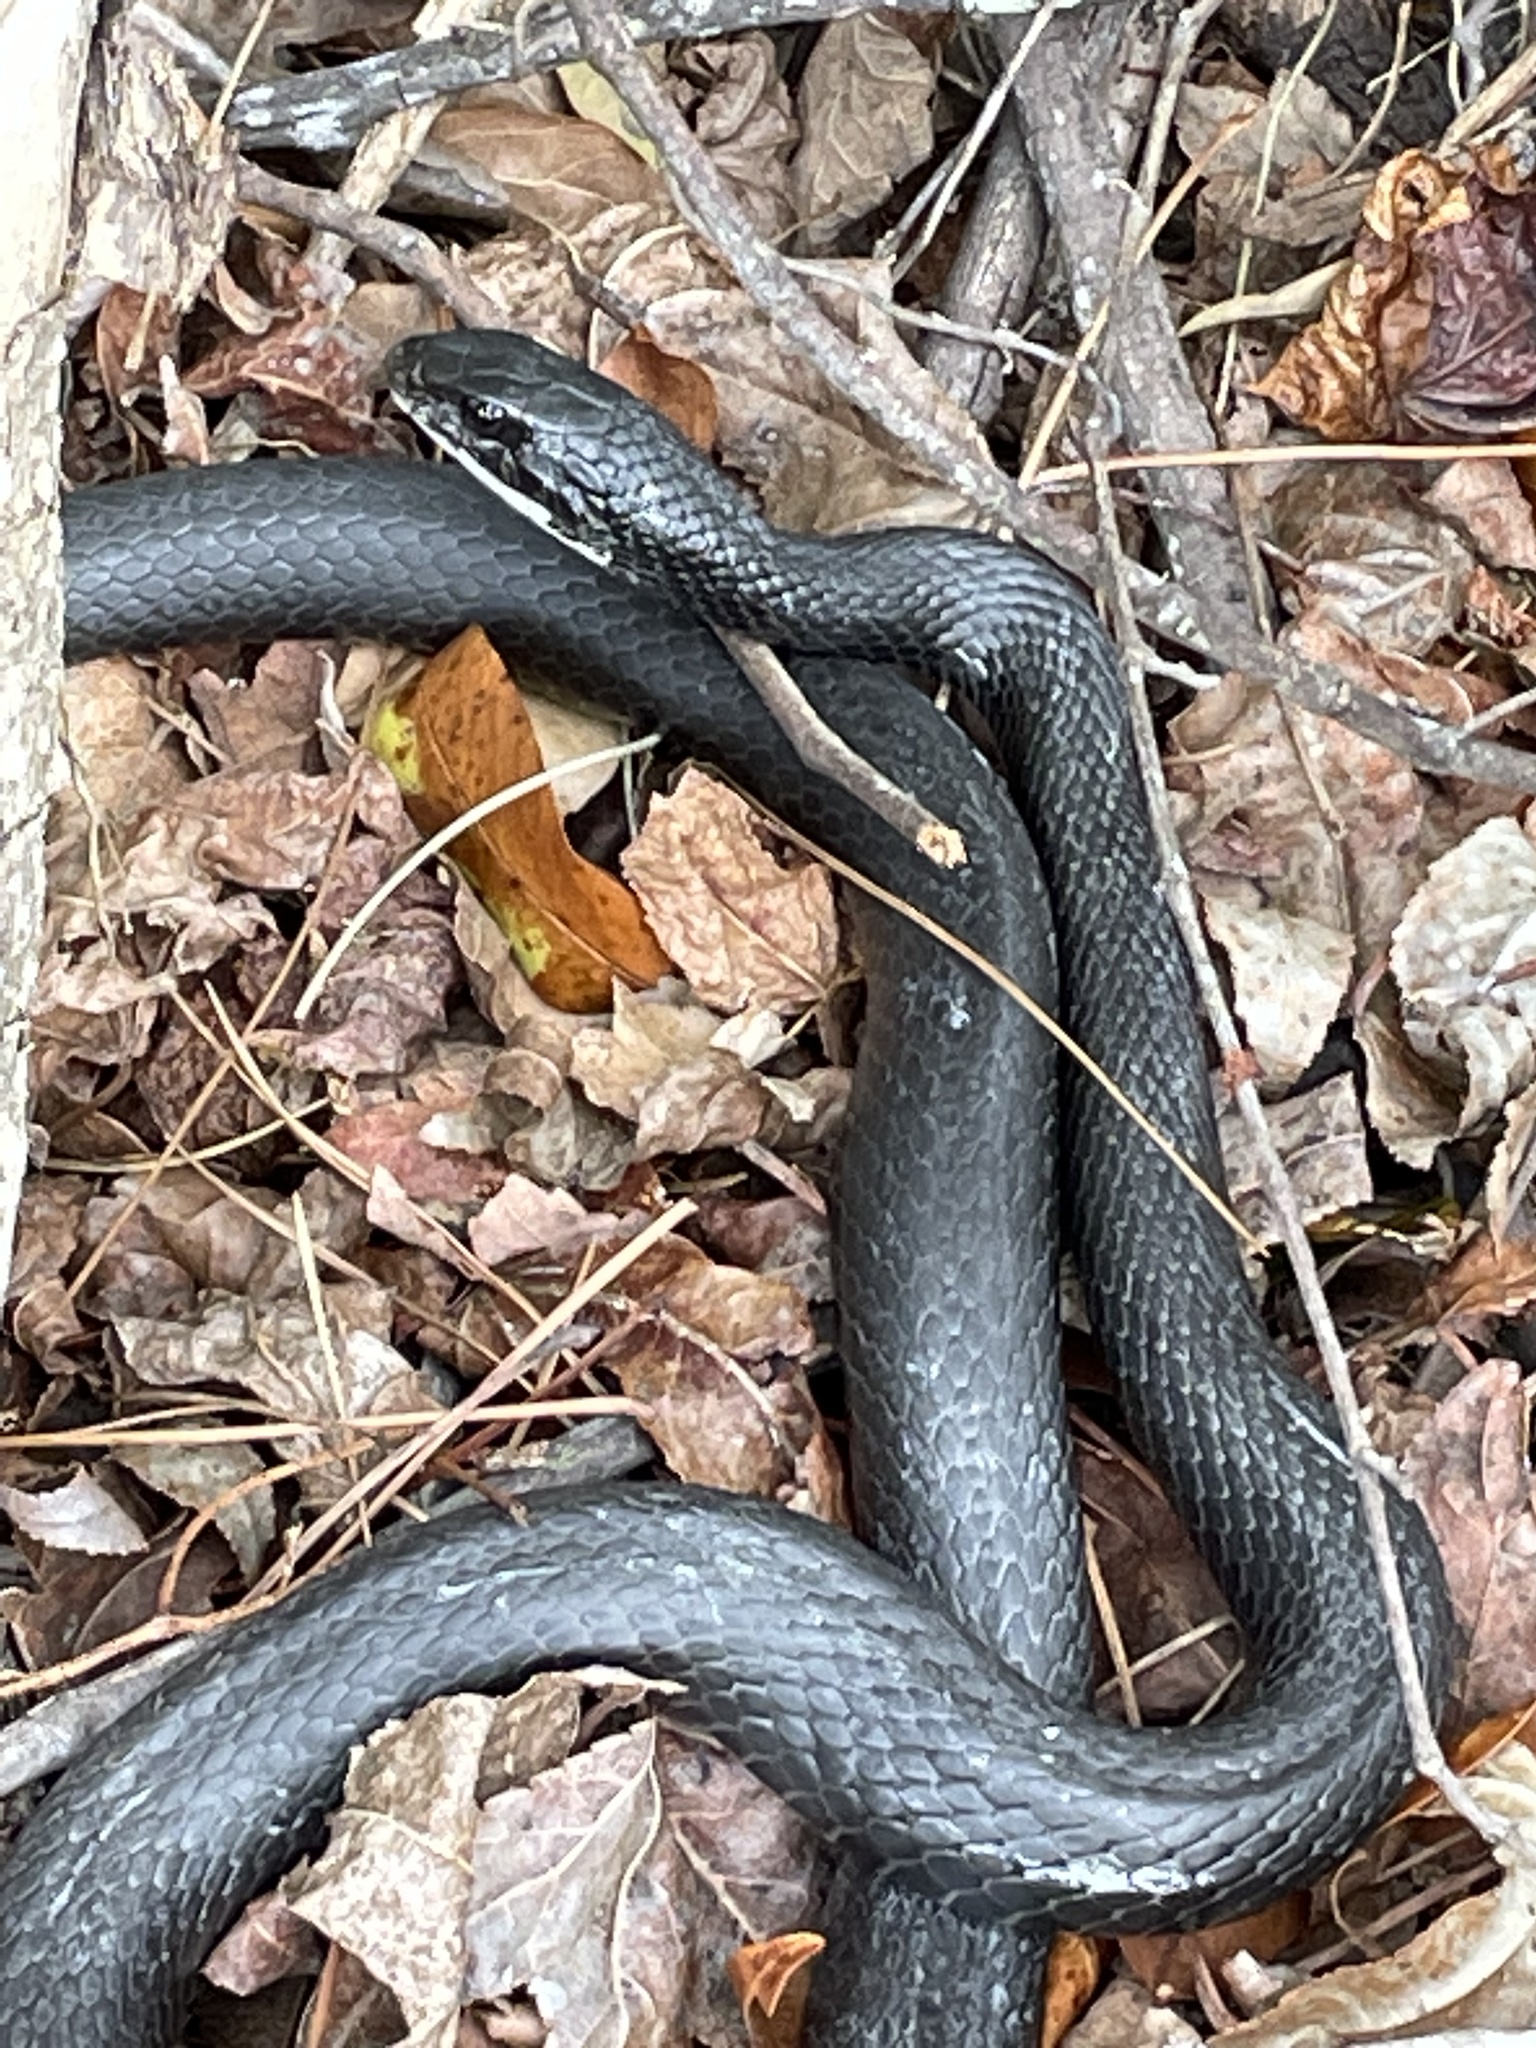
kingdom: Animalia
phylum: Chordata
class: Squamata
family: Colubridae
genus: Coluber
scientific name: Coluber constrictor
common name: Eastern racer
